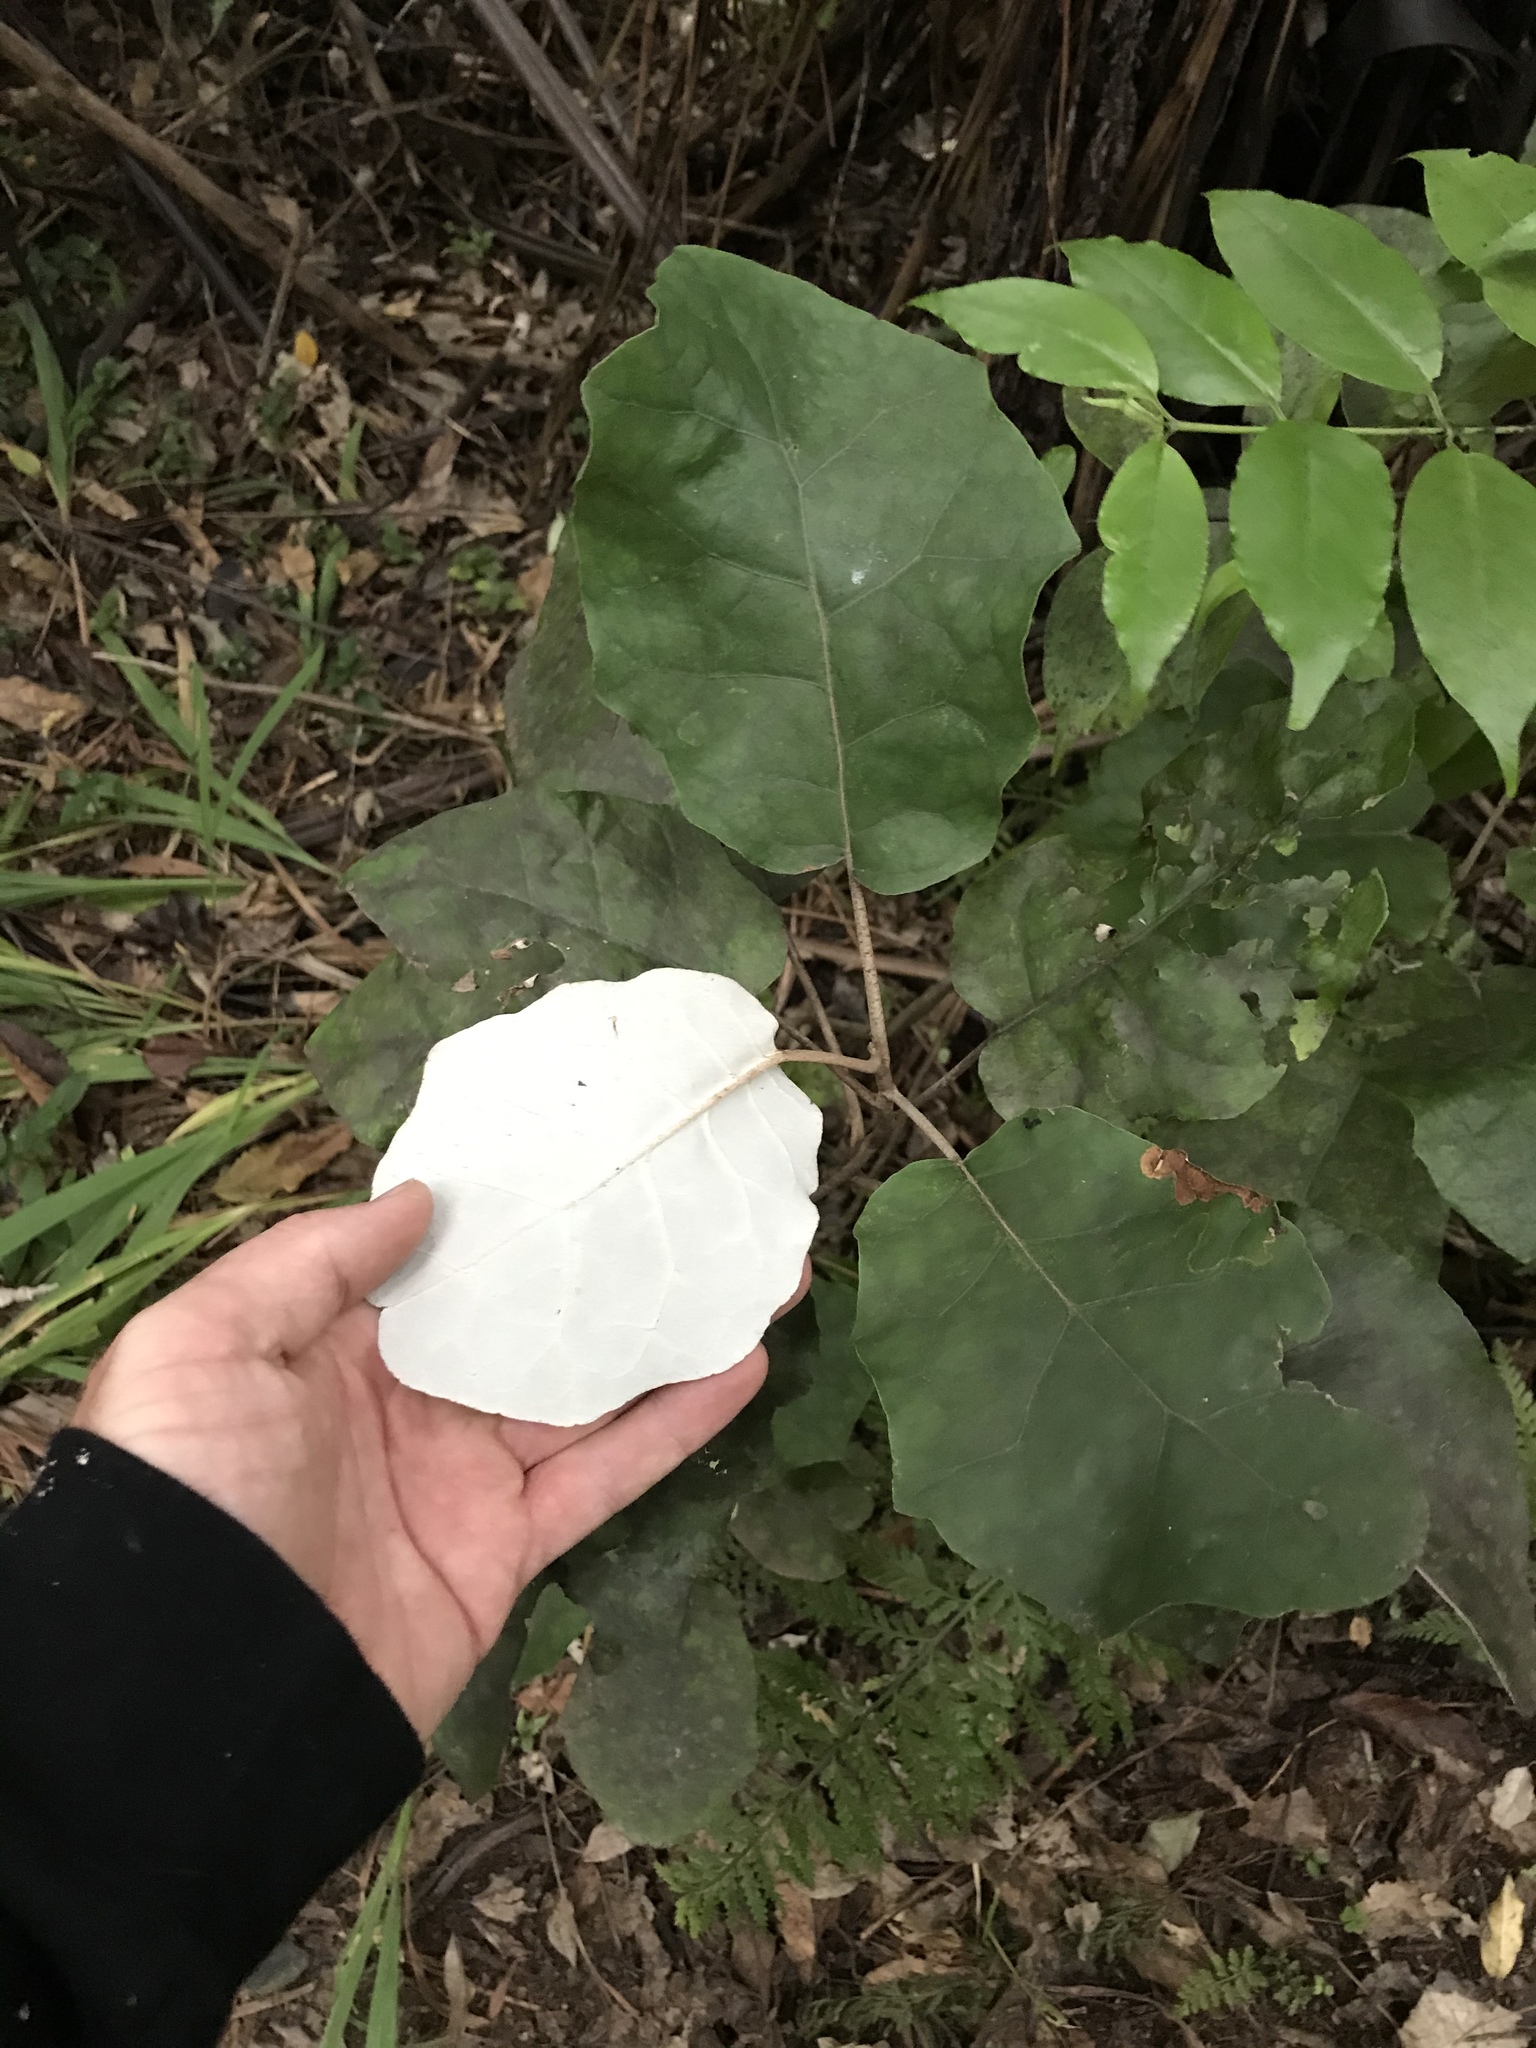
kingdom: Plantae
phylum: Tracheophyta
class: Magnoliopsida
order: Asterales
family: Asteraceae
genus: Brachyglottis
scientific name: Brachyglottis repanda
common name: Hedge ragwort
